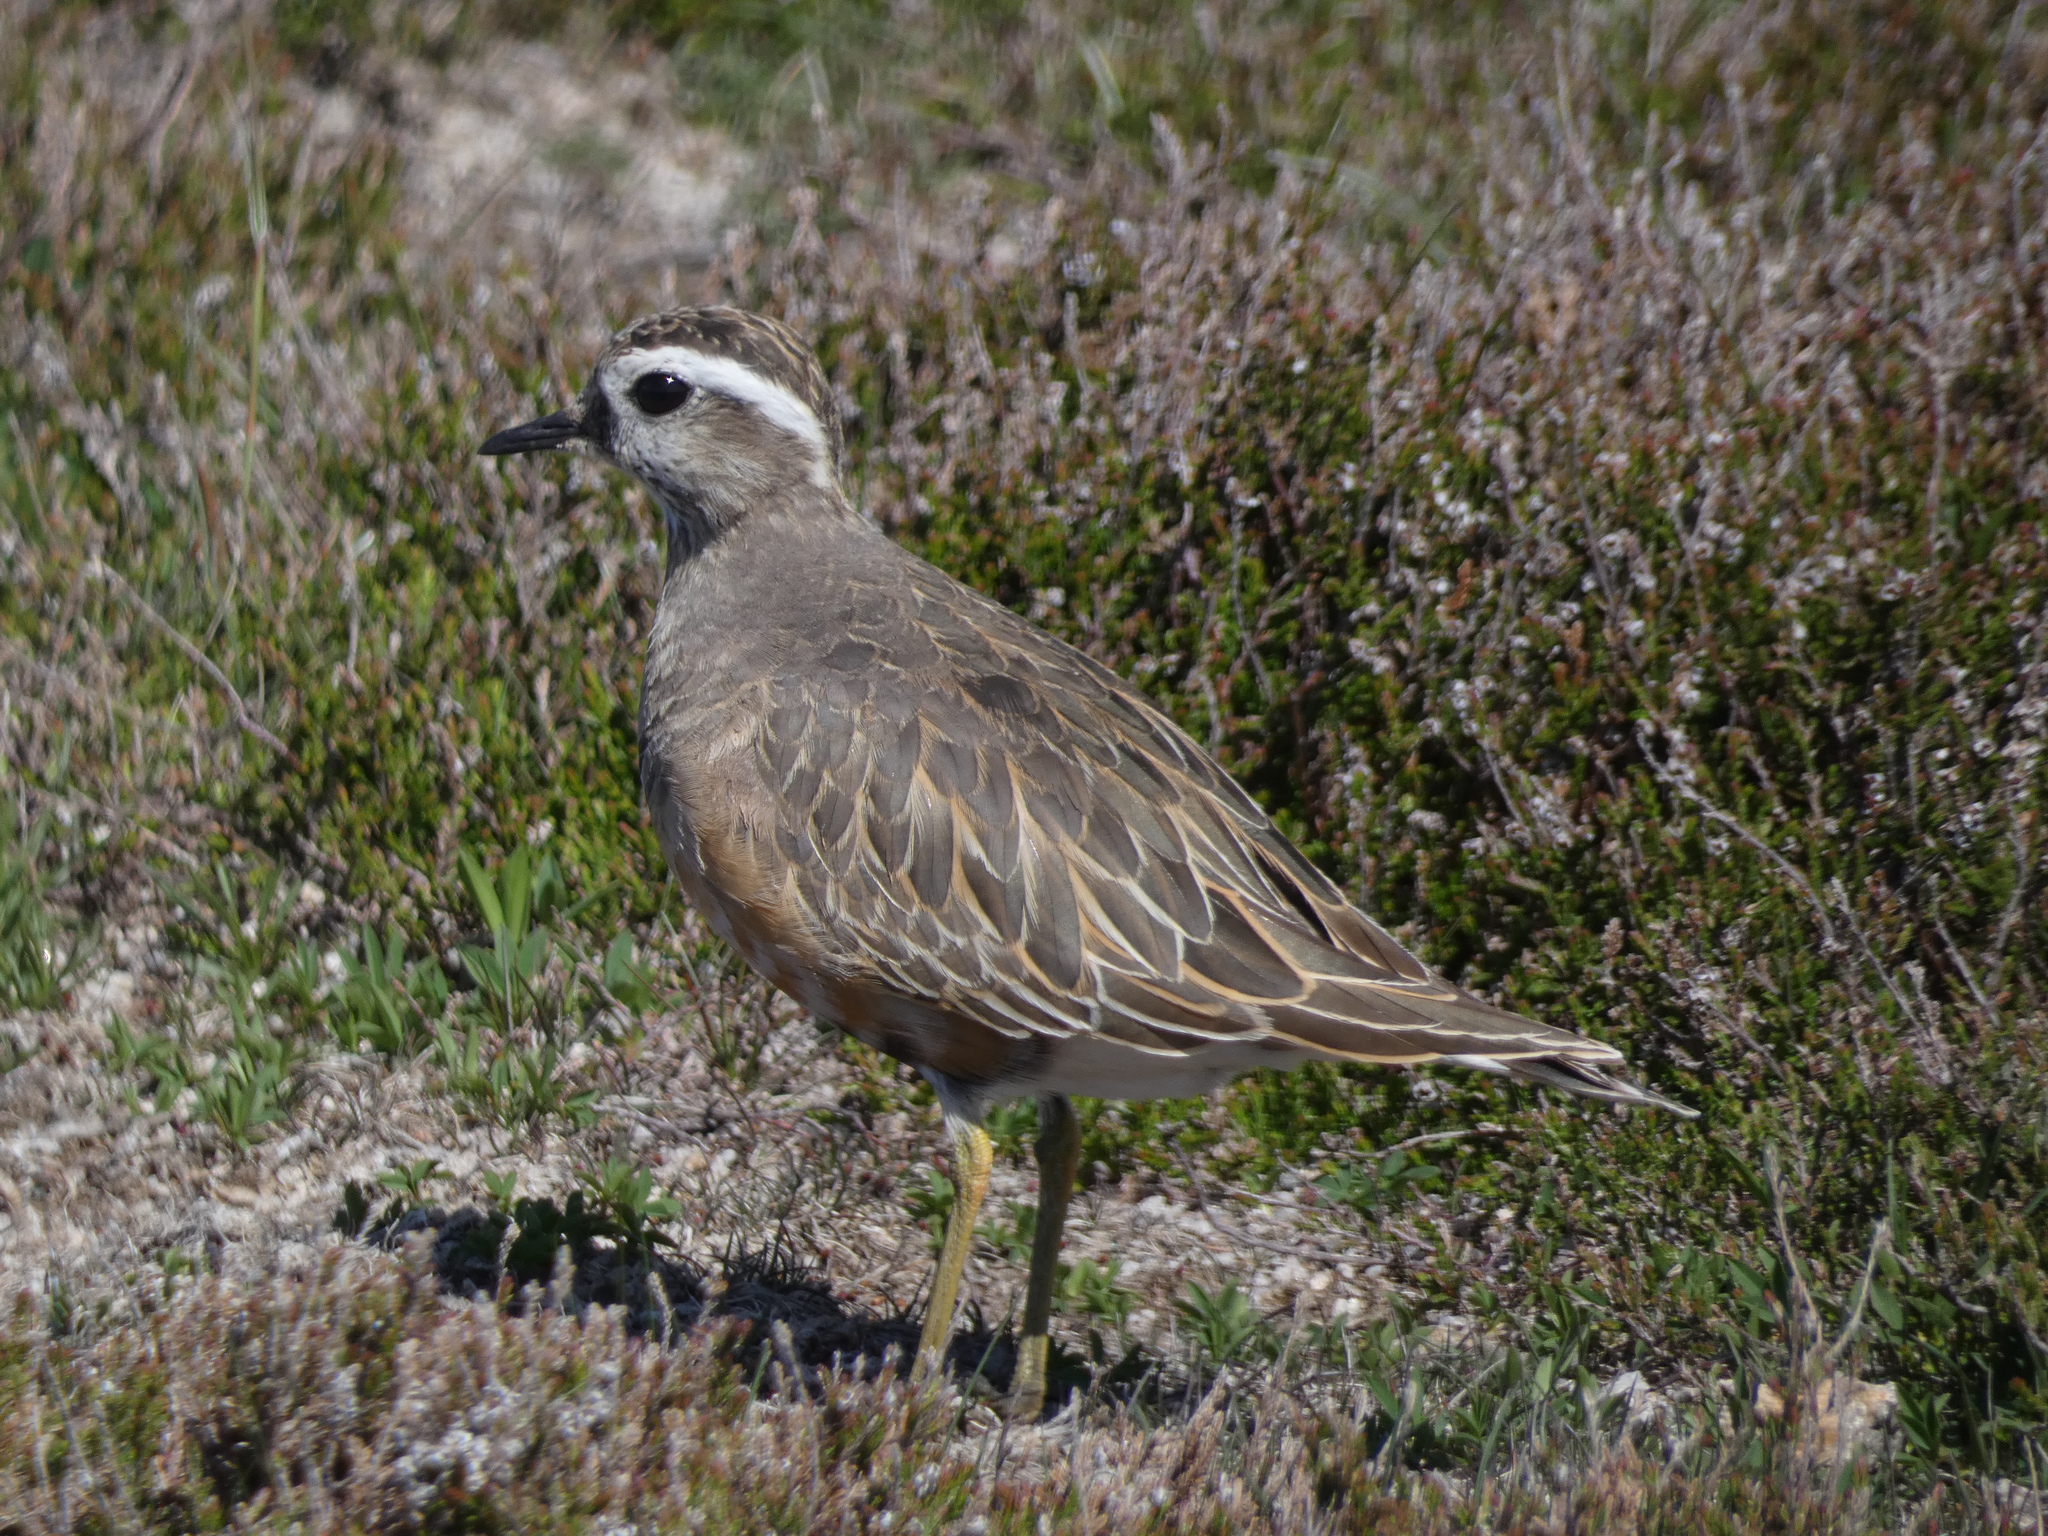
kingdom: Animalia
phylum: Chordata
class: Aves
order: Charadriiformes
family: Charadriidae
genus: Charadrius
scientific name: Charadrius morinellus
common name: Eurasian dotterel
